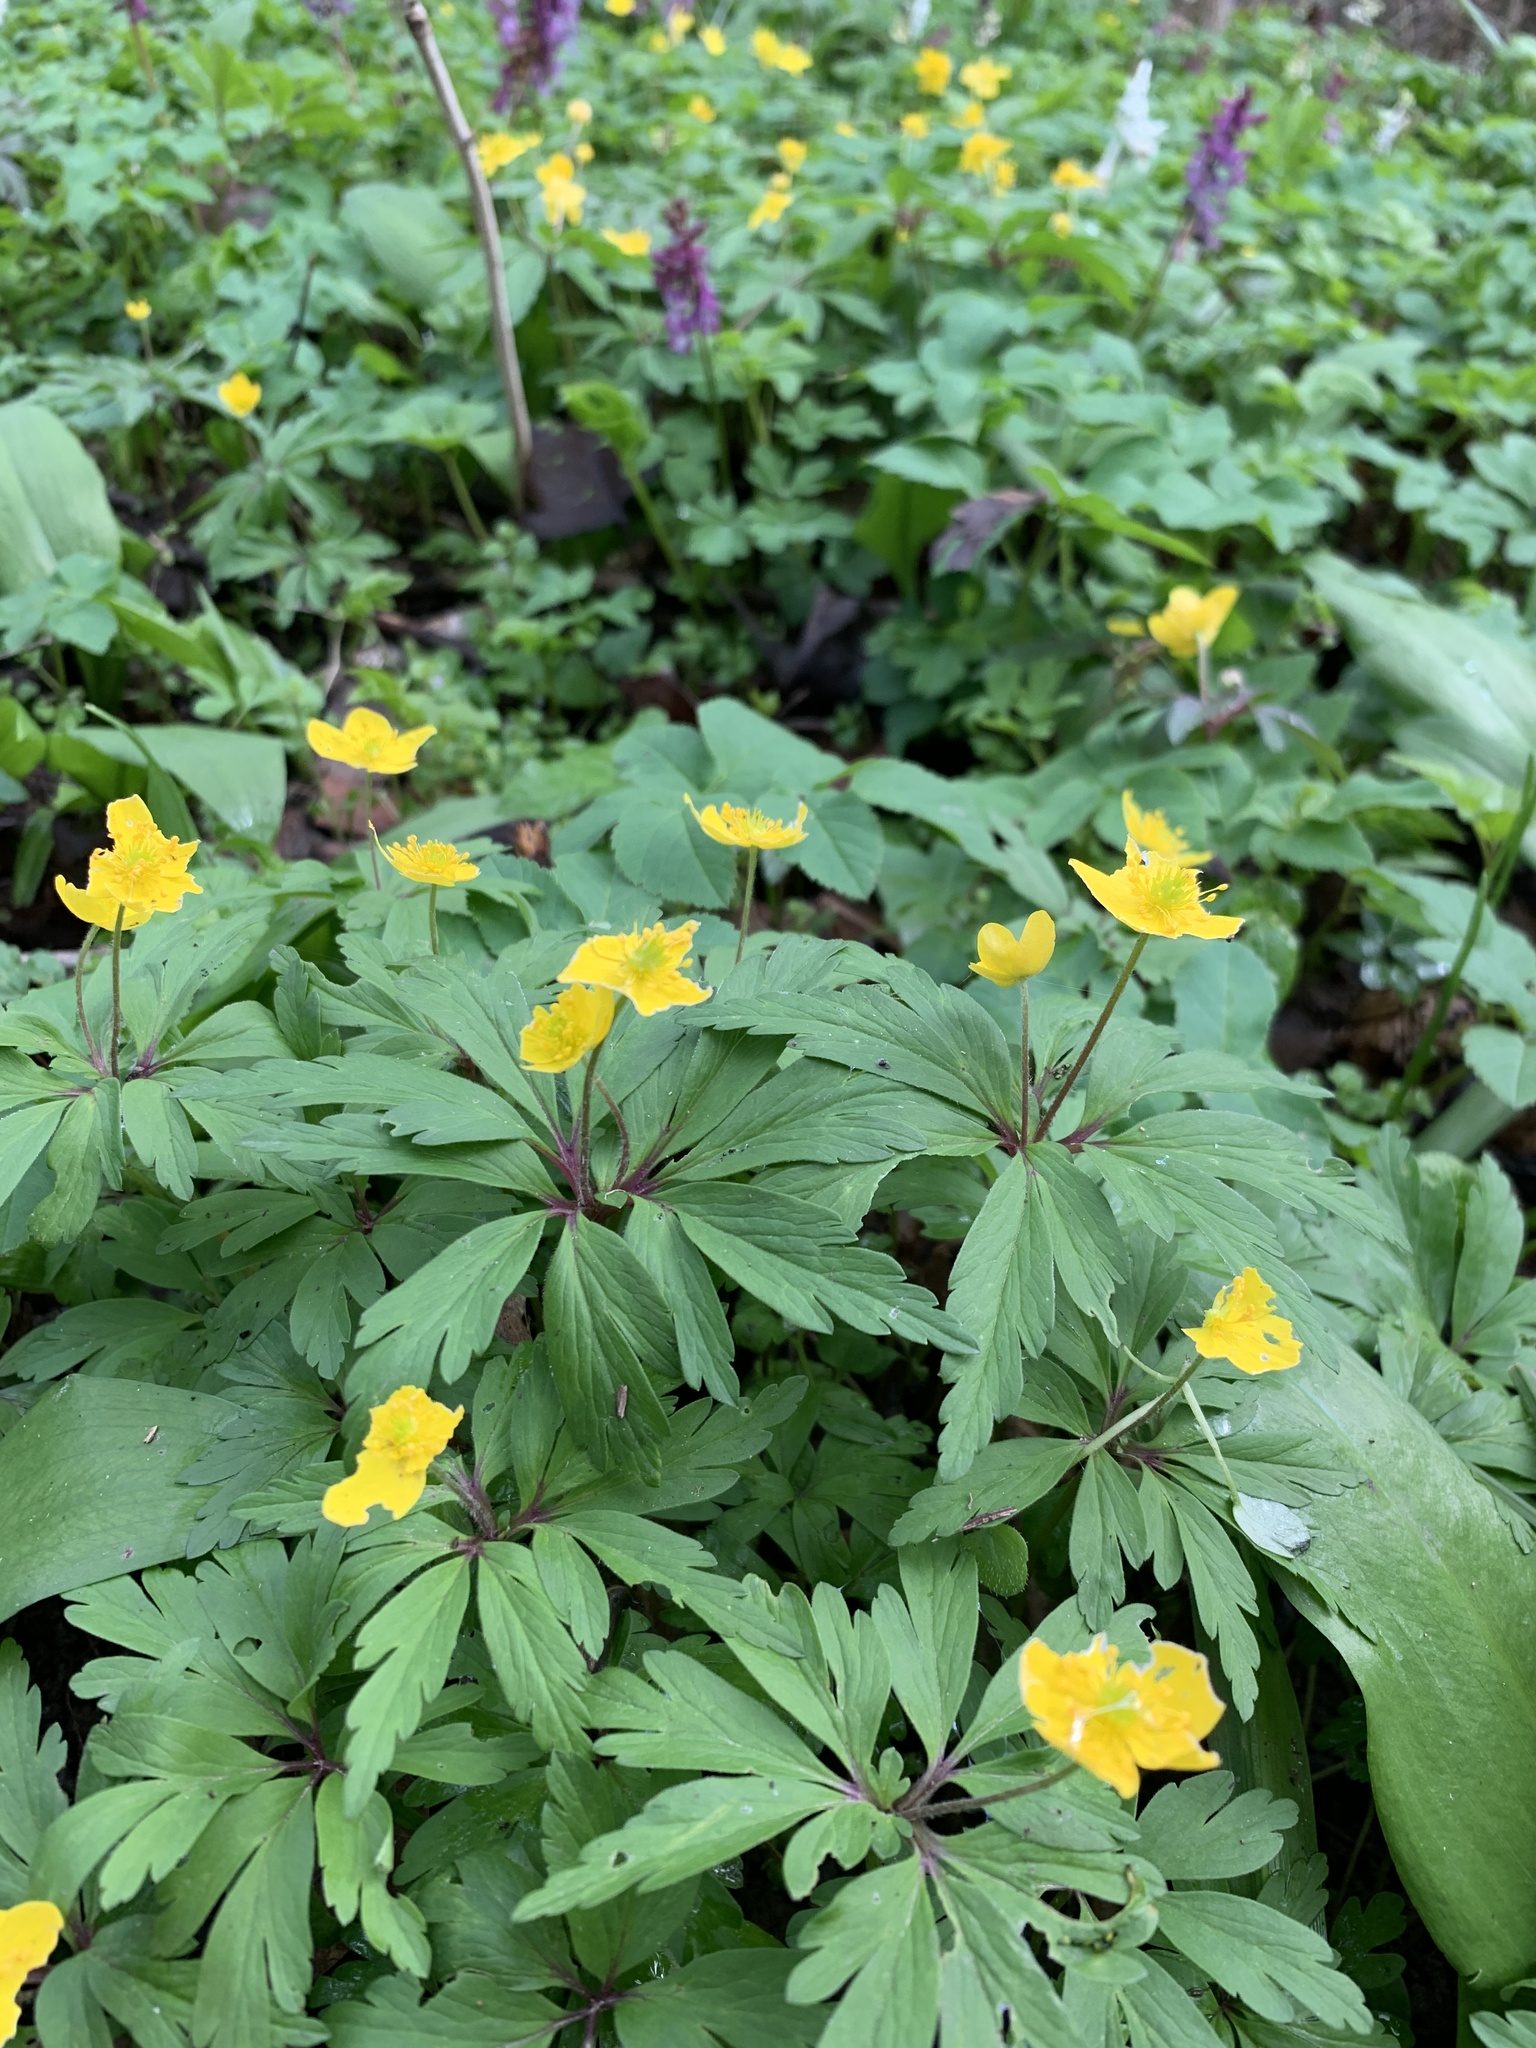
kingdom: Plantae
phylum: Tracheophyta
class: Magnoliopsida
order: Ranunculales
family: Ranunculaceae
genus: Anemone
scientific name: Anemone ranunculoides
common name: Yellow anemone
